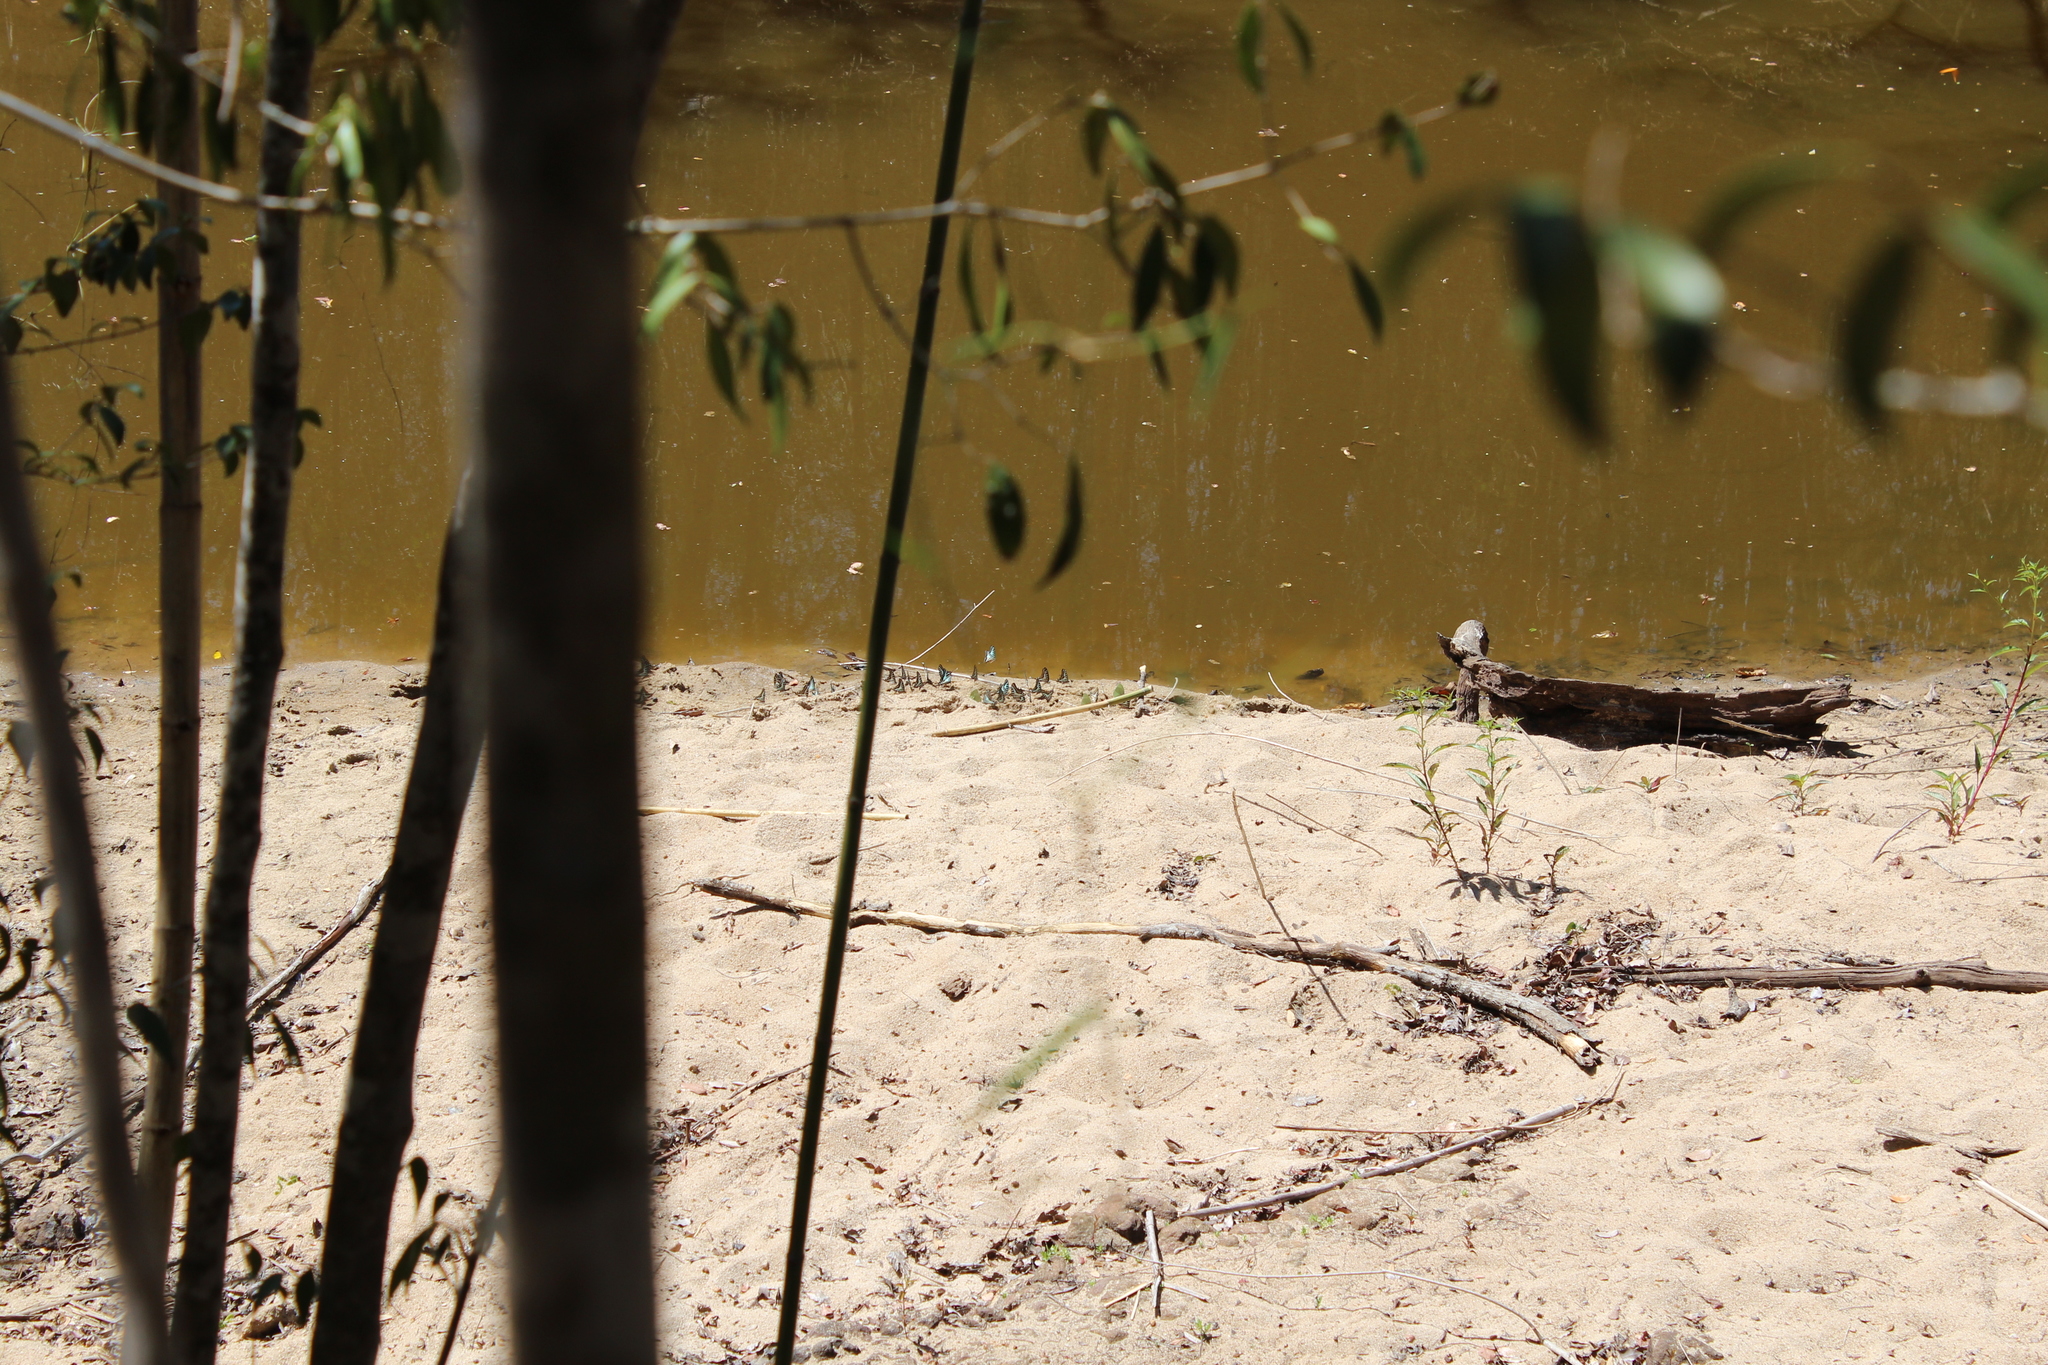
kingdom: Animalia
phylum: Arthropoda
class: Insecta
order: Lepidoptera
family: Papilionidae
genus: Graphium
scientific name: Graphium evombar
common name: Madagascan striped swordtail
